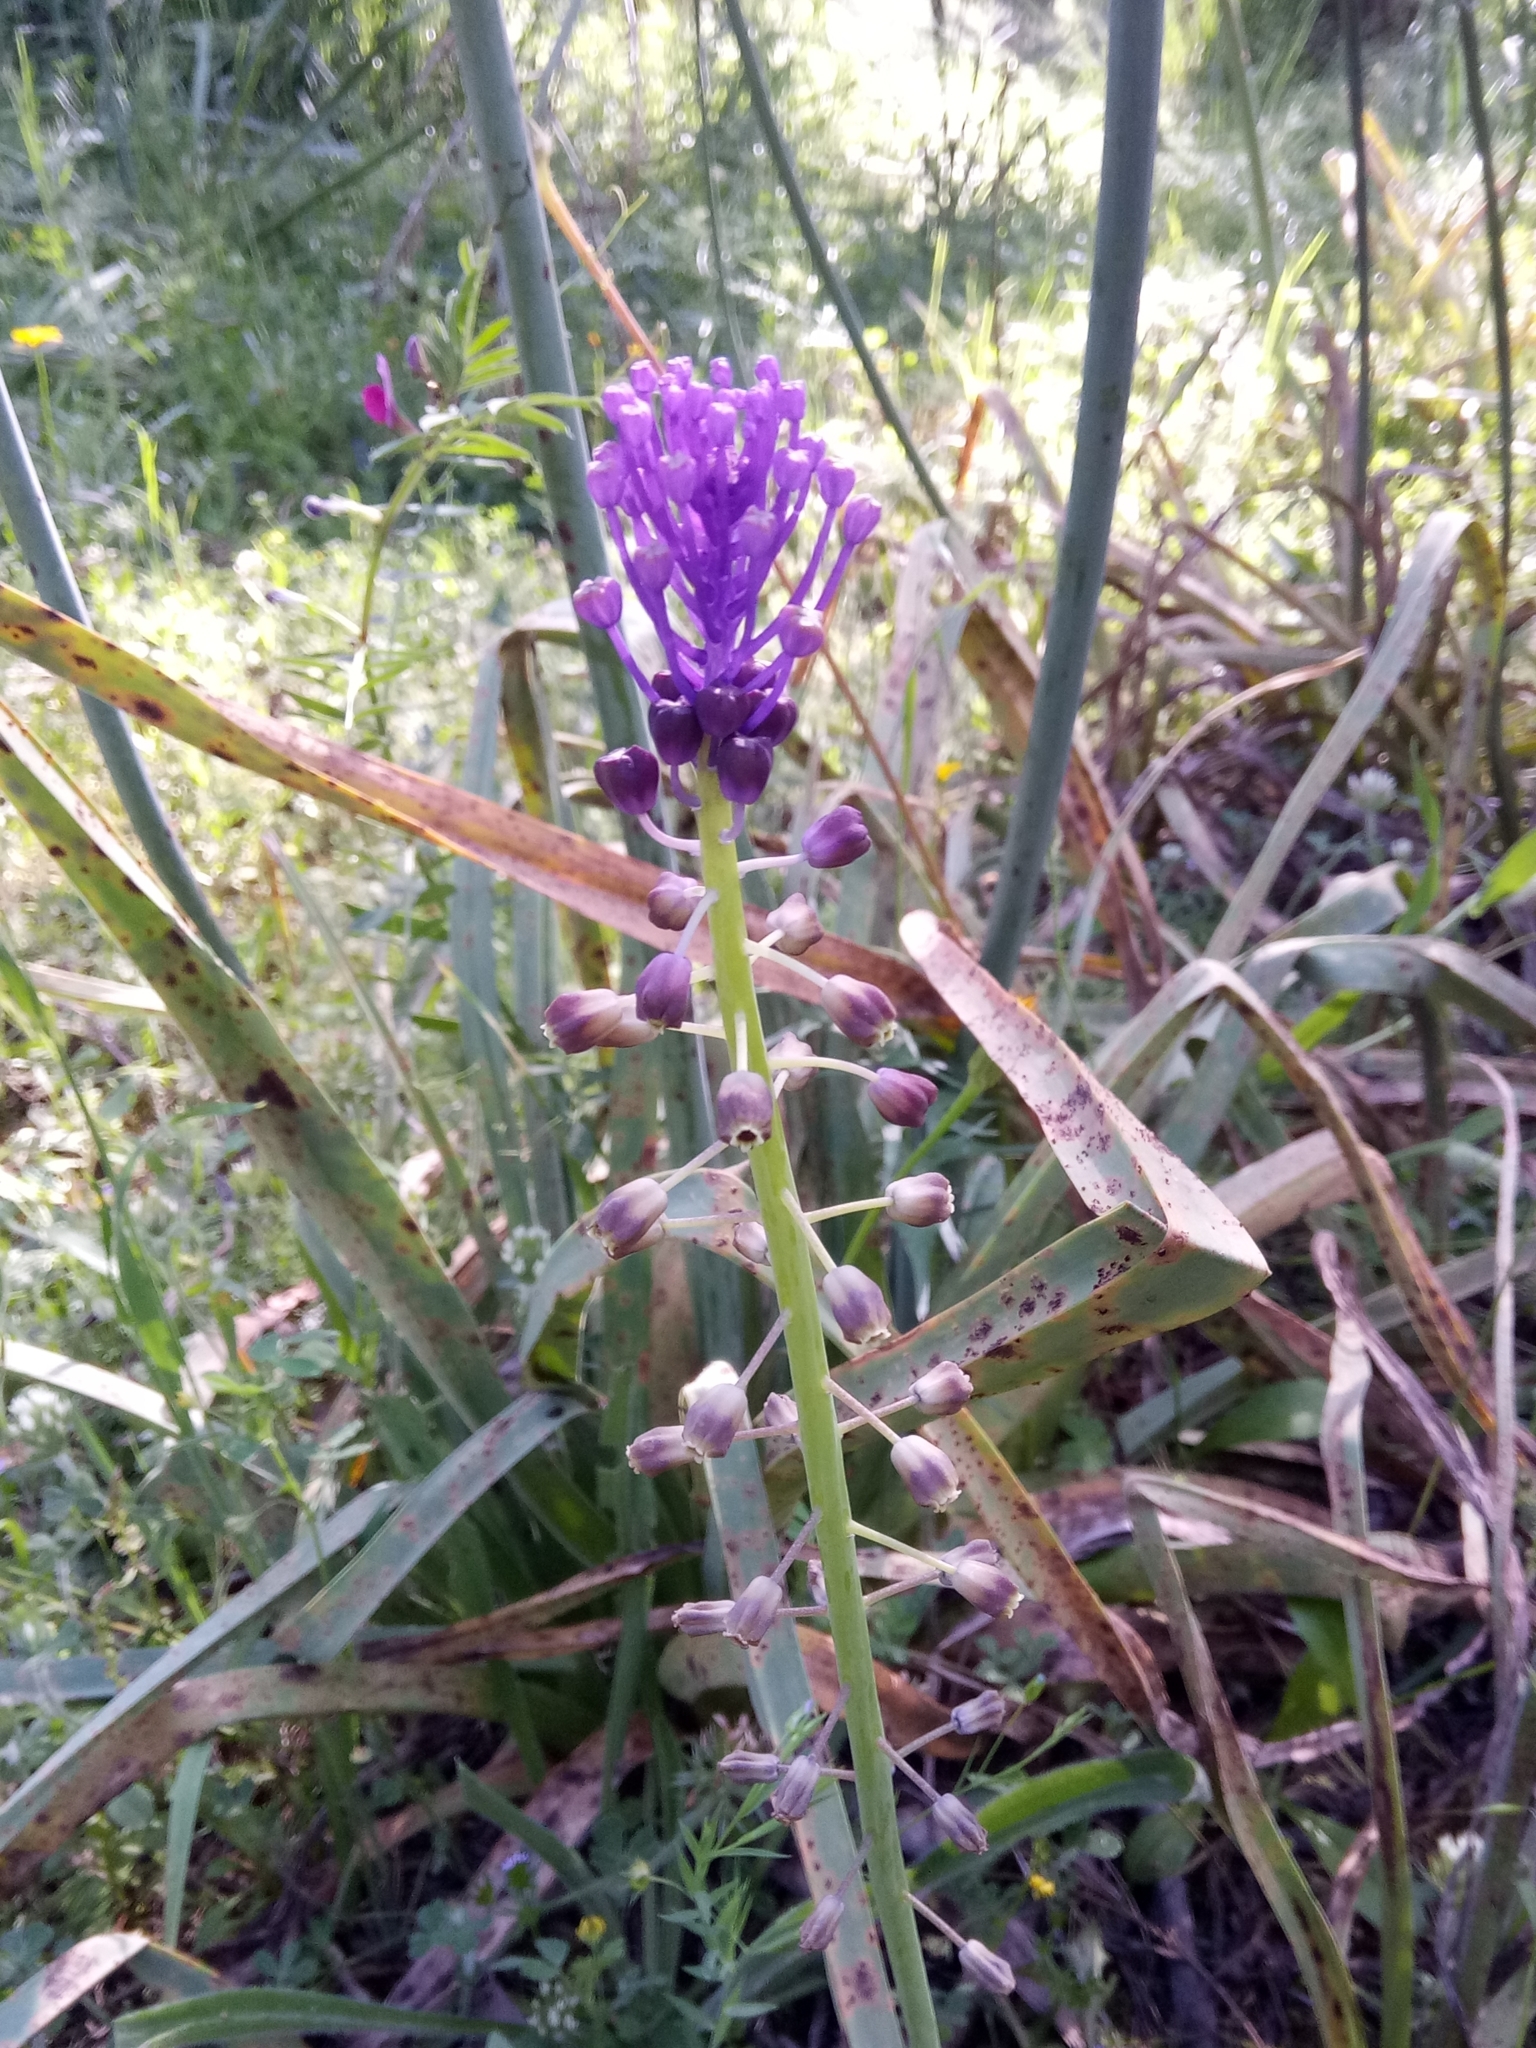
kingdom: Plantae
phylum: Tracheophyta
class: Liliopsida
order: Asparagales
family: Asparagaceae
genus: Muscari
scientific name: Muscari comosum
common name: Tassel hyacinth
